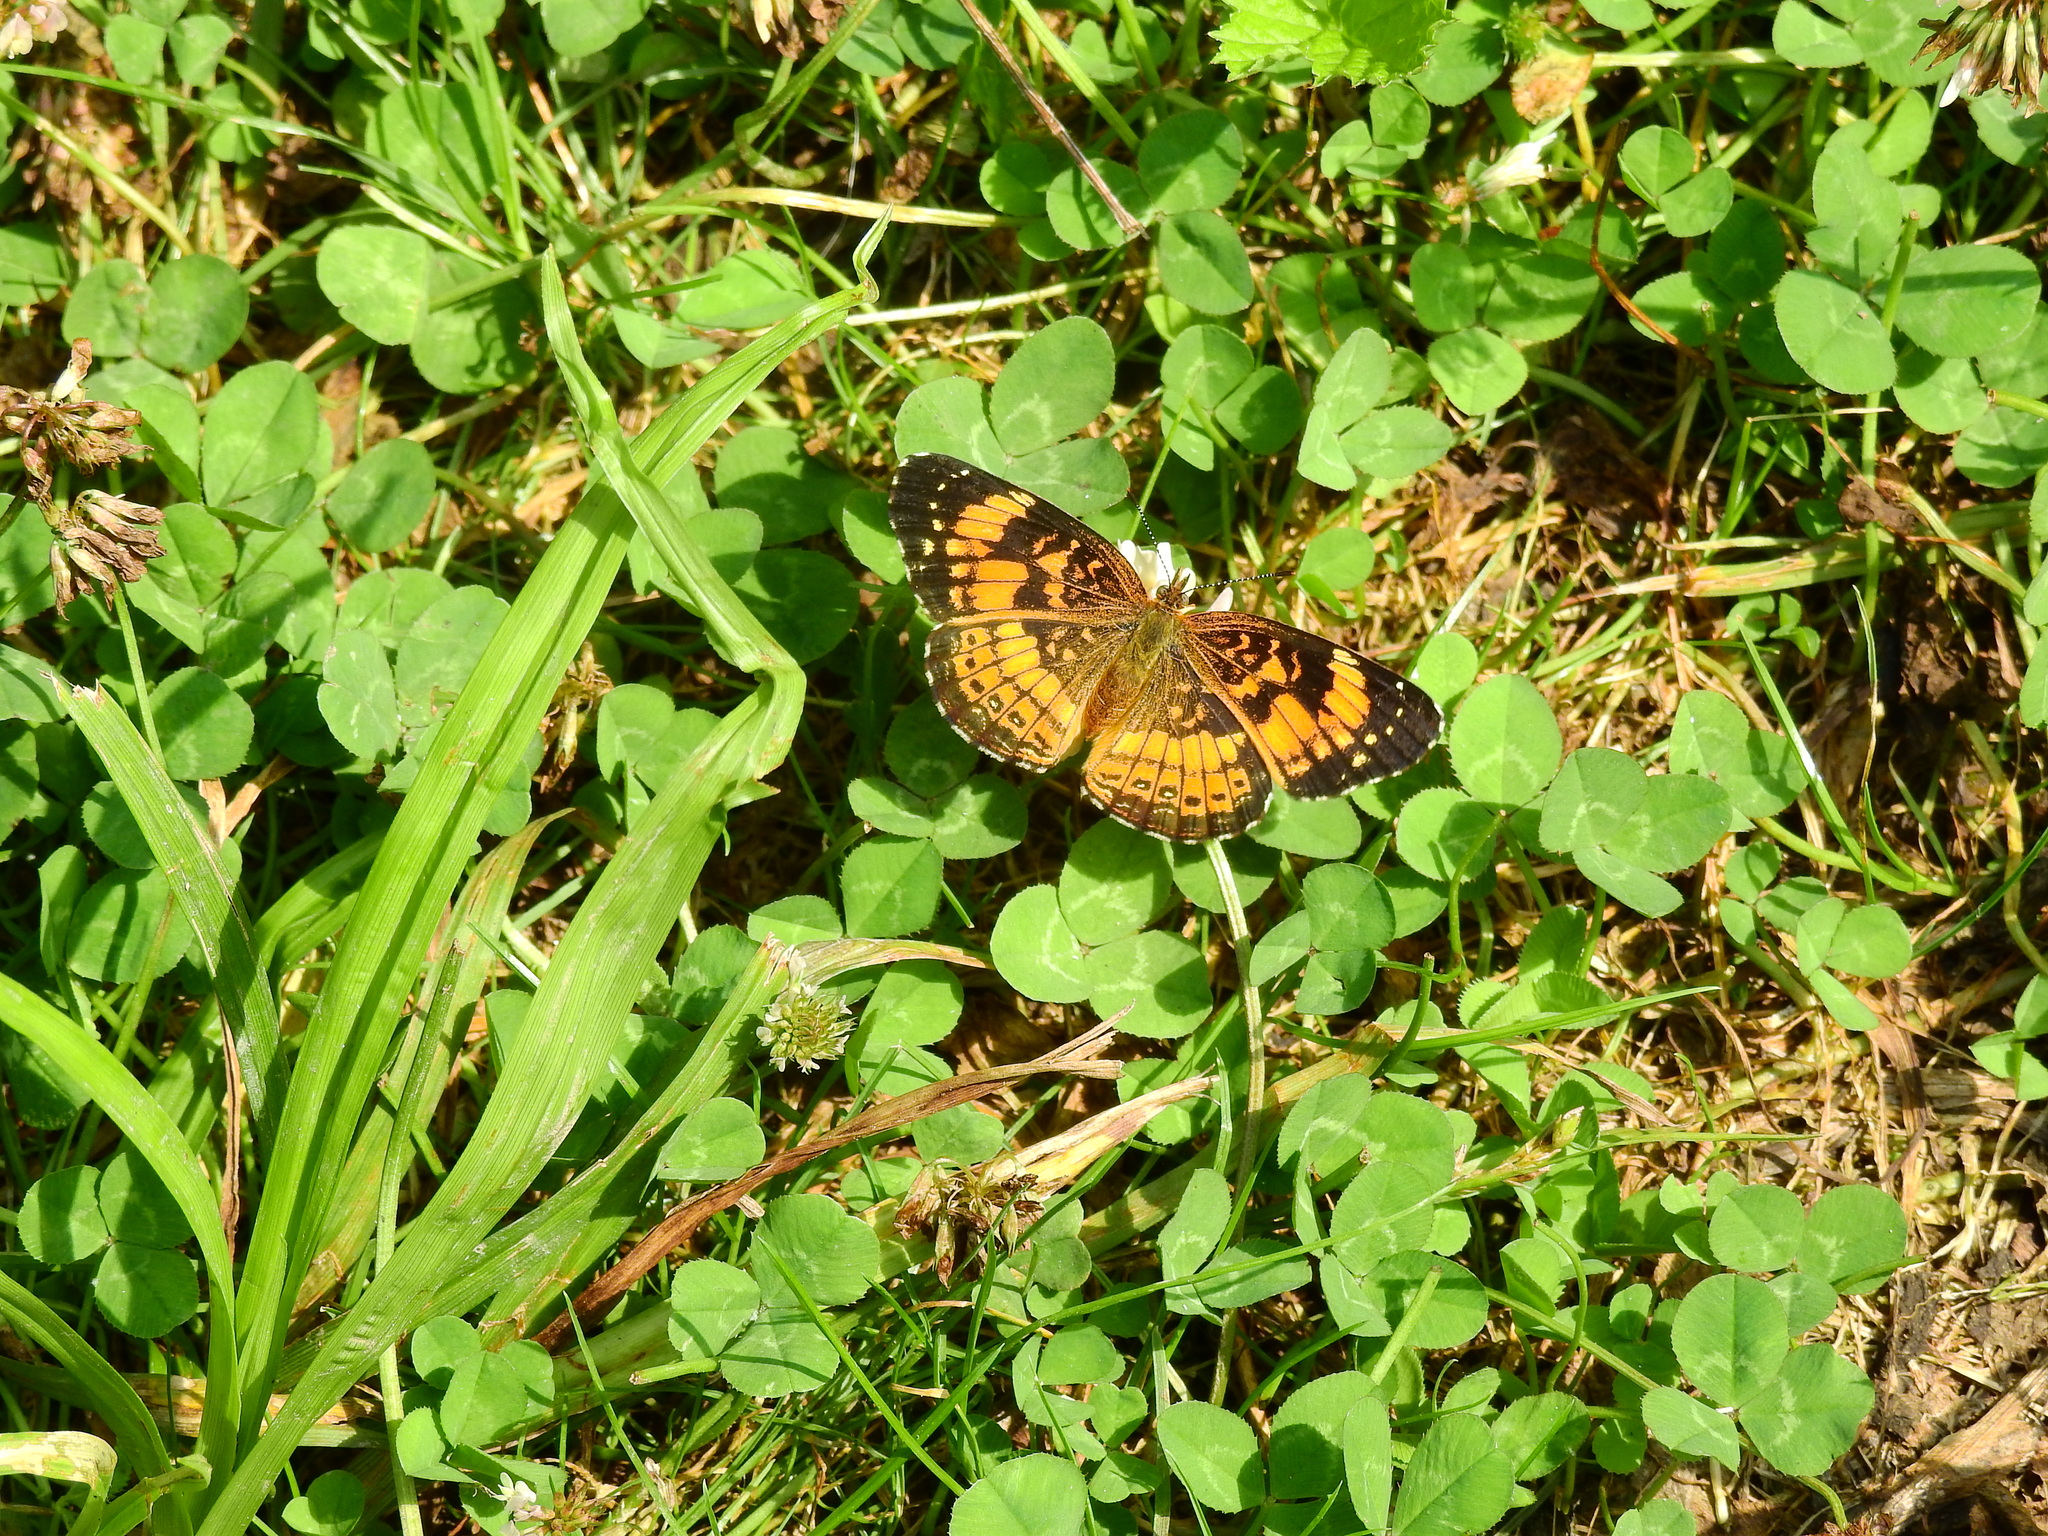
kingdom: Animalia
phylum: Arthropoda
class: Insecta
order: Lepidoptera
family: Nymphalidae
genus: Chlosyne
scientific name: Chlosyne nycteis
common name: Silvery checkerspot
